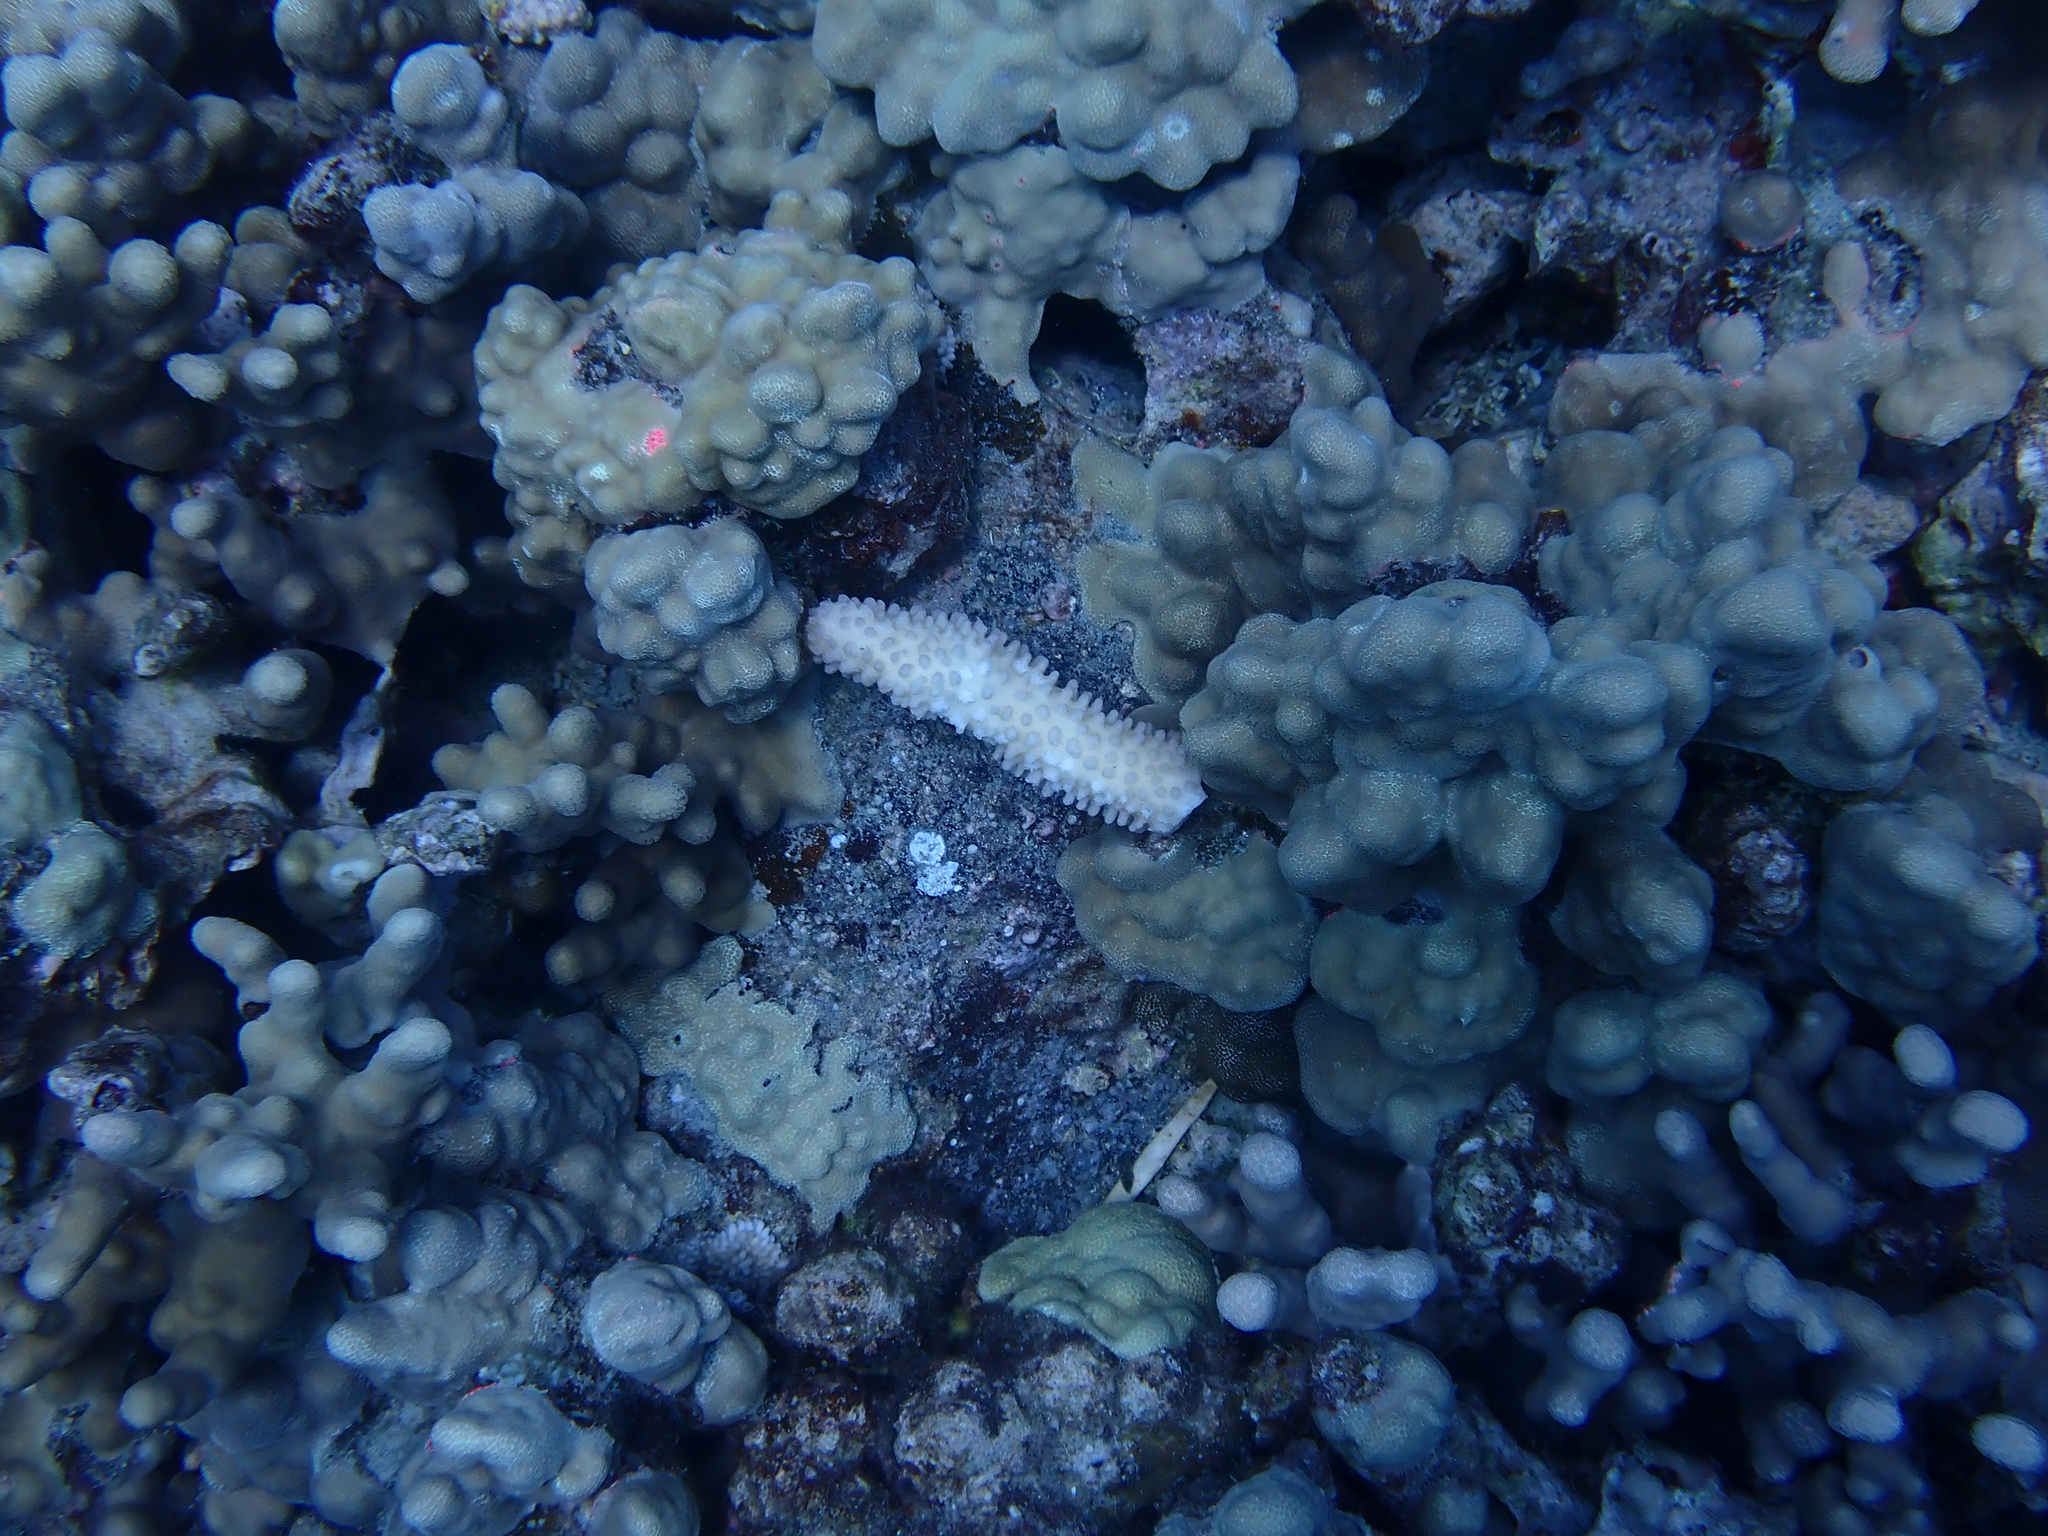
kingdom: Animalia
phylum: Cnidaria
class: Anthozoa
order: Scleractinia
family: Pocilloporidae
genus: Pocillopora
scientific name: Pocillopora grandis
